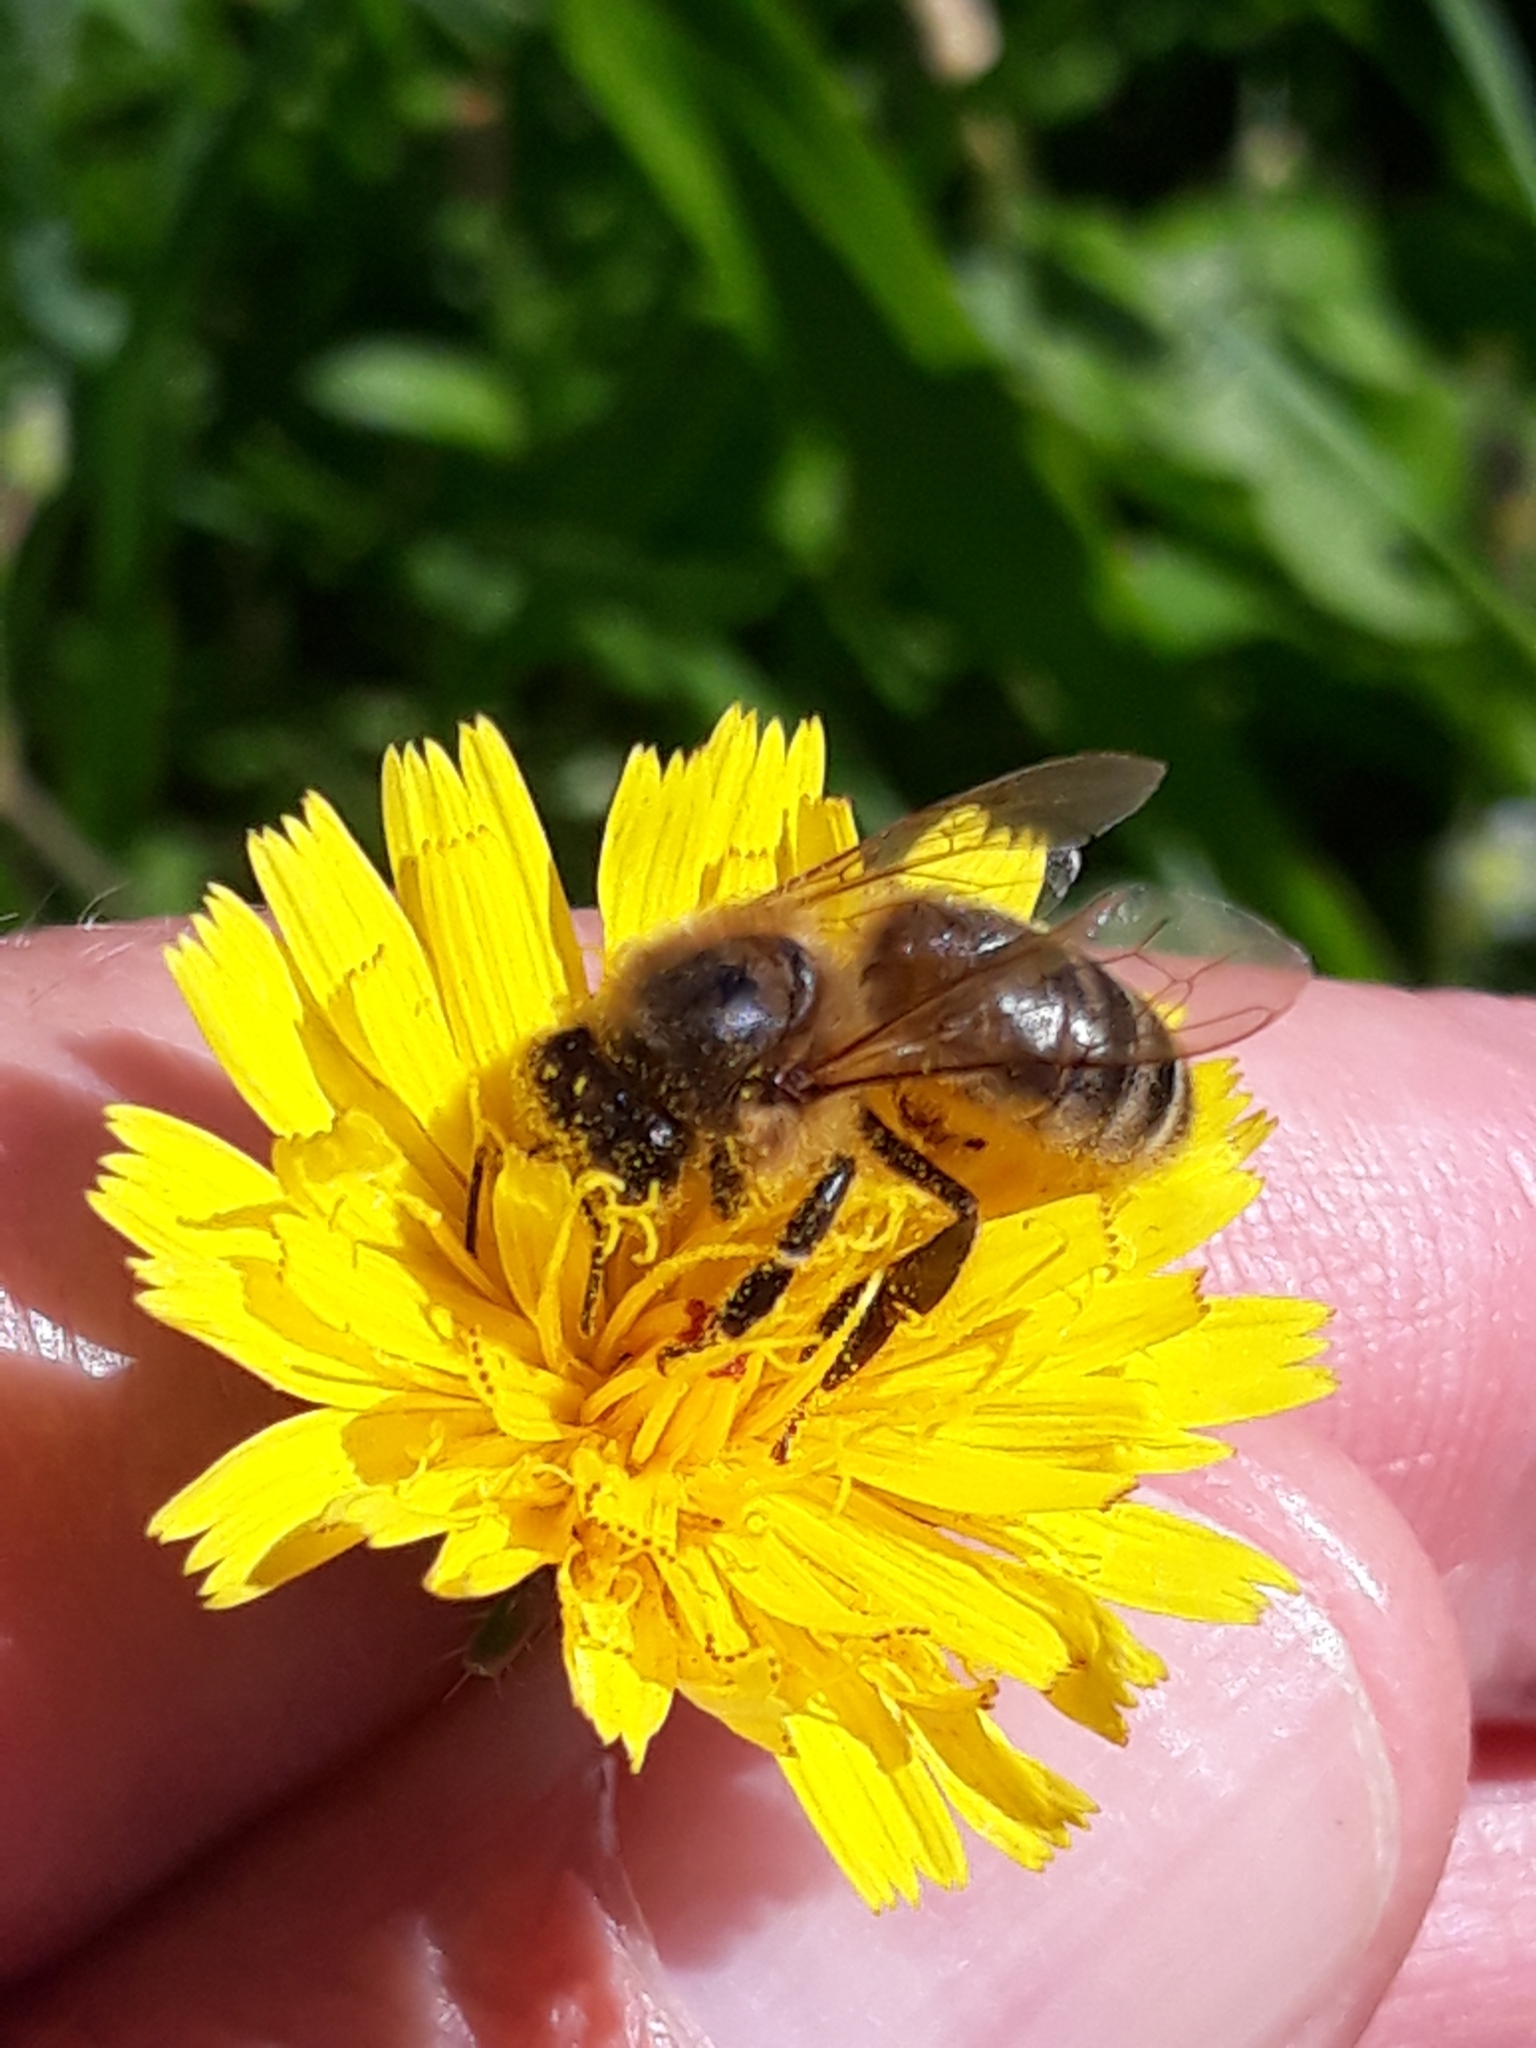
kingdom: Animalia
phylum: Arthropoda
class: Insecta
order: Hymenoptera
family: Apidae
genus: Apis
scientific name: Apis mellifera
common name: Honey bee
